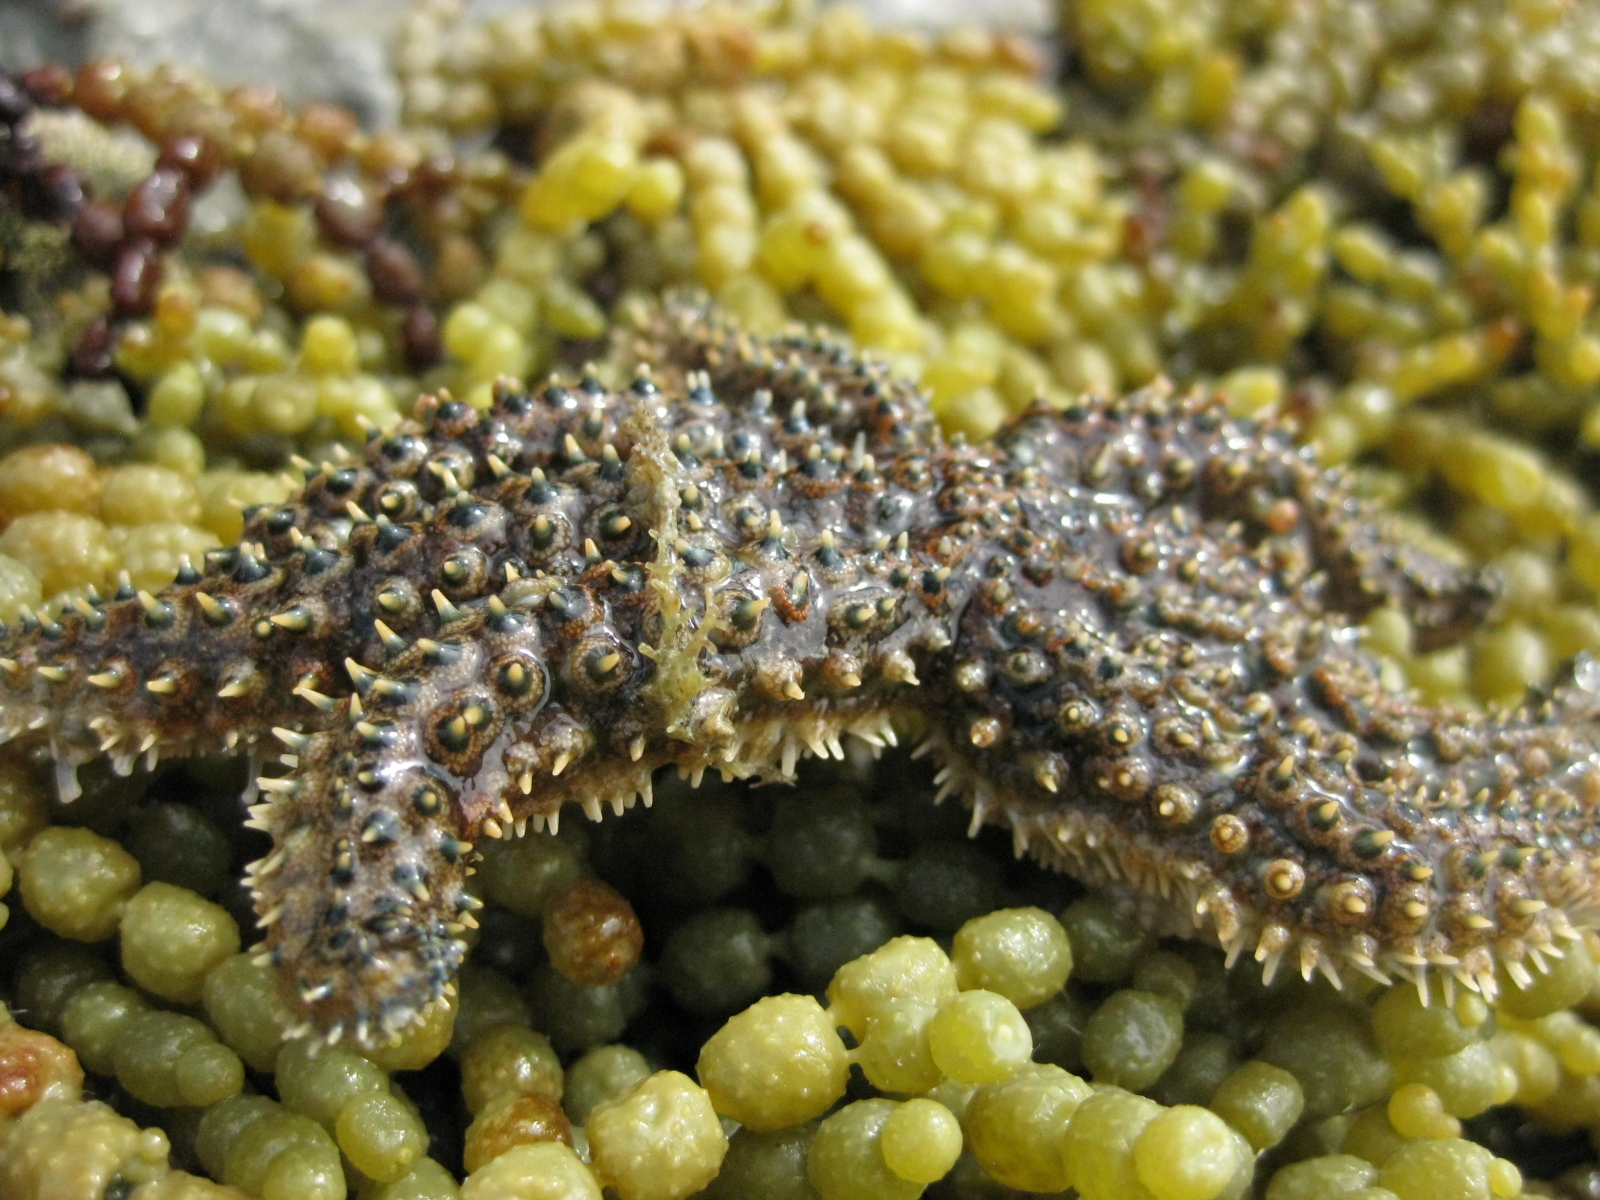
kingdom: Animalia
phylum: Echinodermata
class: Asteroidea
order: Forcipulatida
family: Asteriidae
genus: Coscinasterias
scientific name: Coscinasterias muricata
